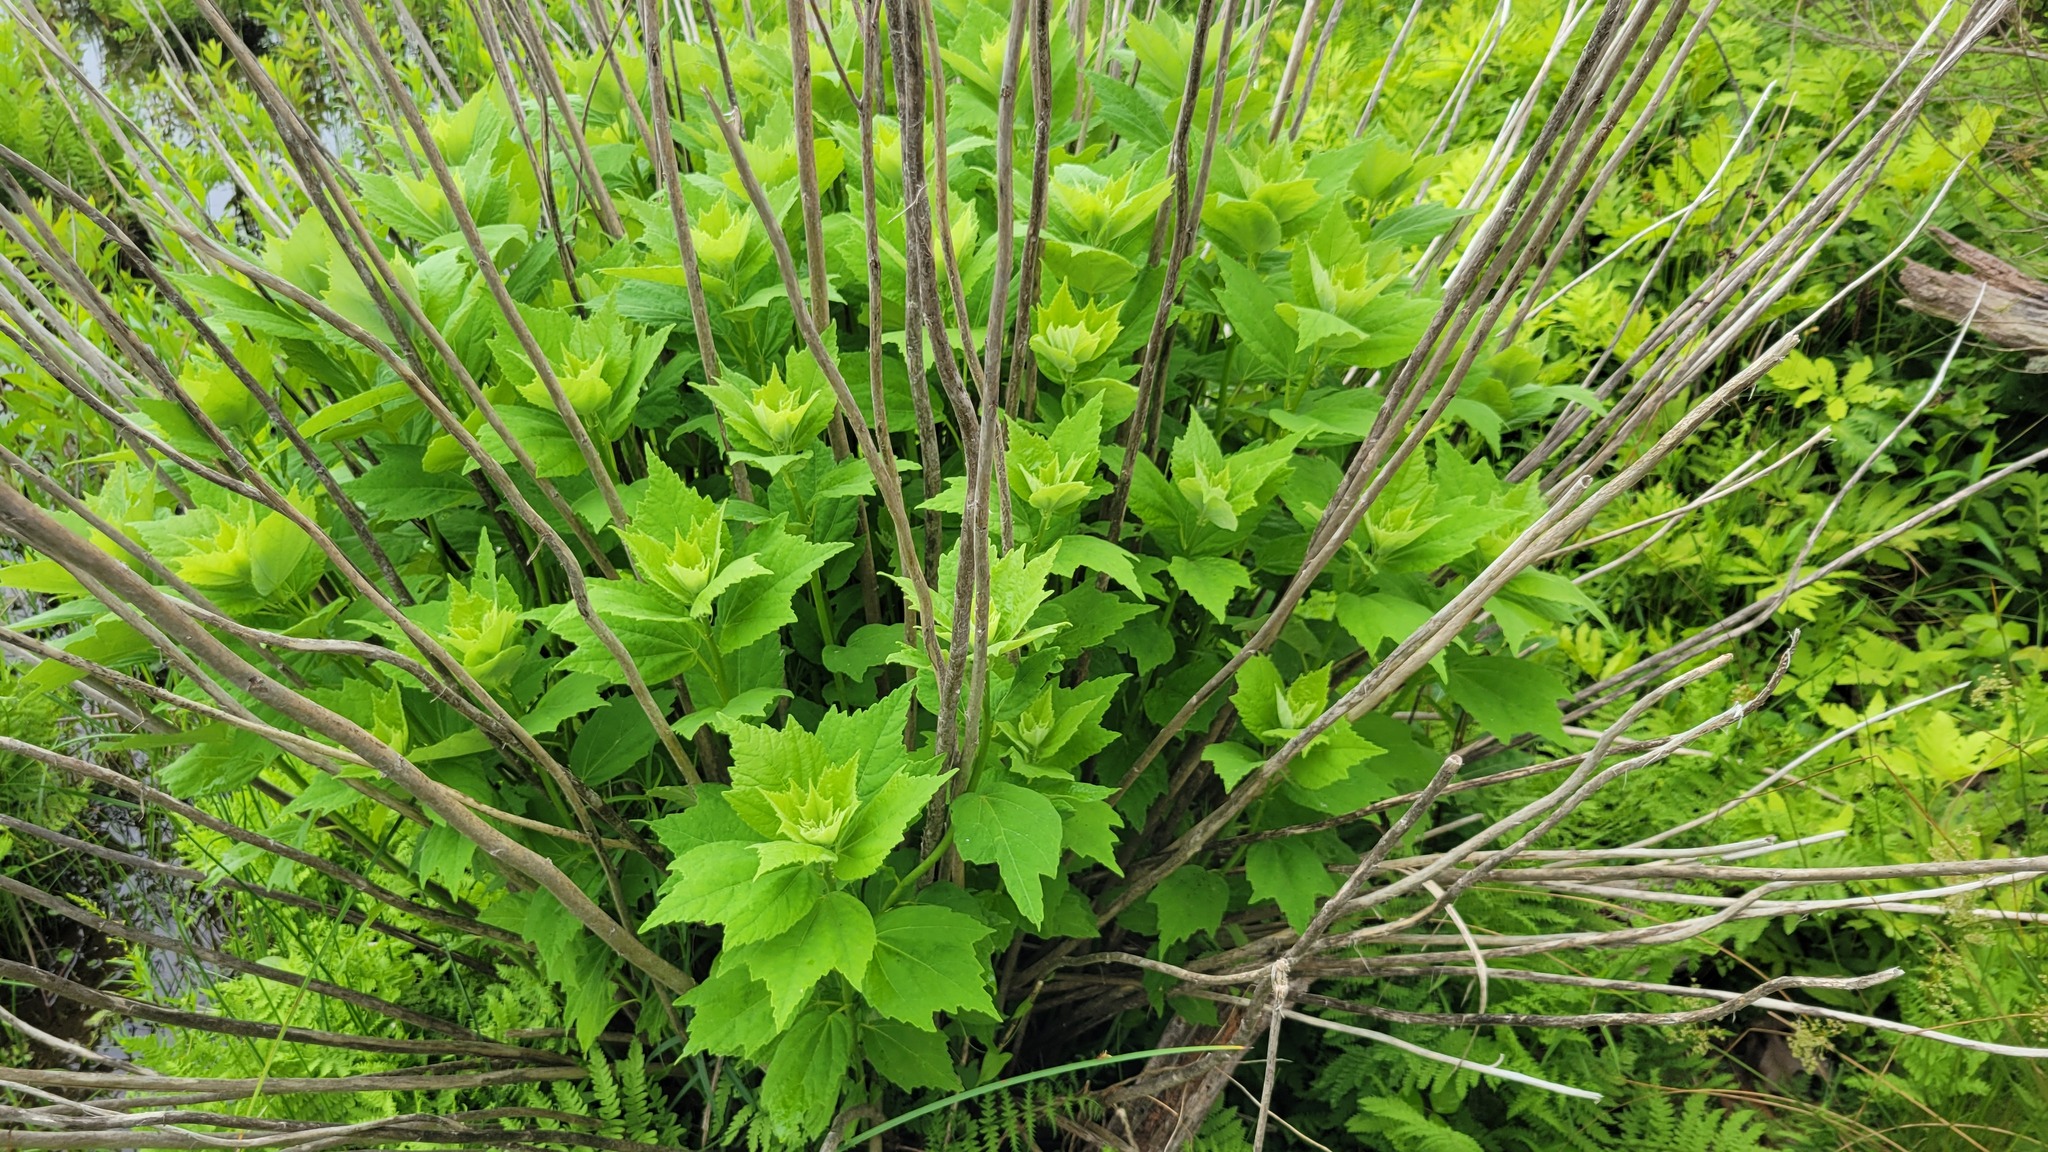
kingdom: Plantae
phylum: Tracheophyta
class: Magnoliopsida
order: Malvales
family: Malvaceae
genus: Hibiscus
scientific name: Hibiscus moscheutos
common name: Common rose-mallow
